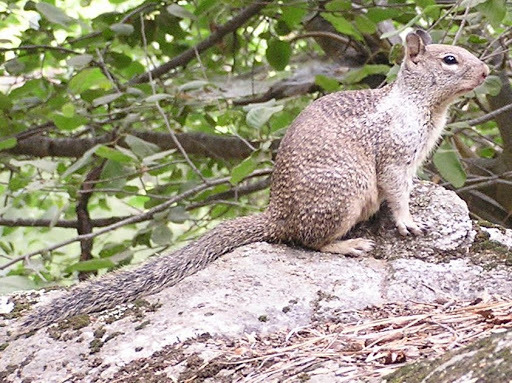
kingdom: Animalia
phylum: Chordata
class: Mammalia
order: Rodentia
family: Sciuridae
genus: Otospermophilus
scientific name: Otospermophilus beecheyi
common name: California ground squirrel
